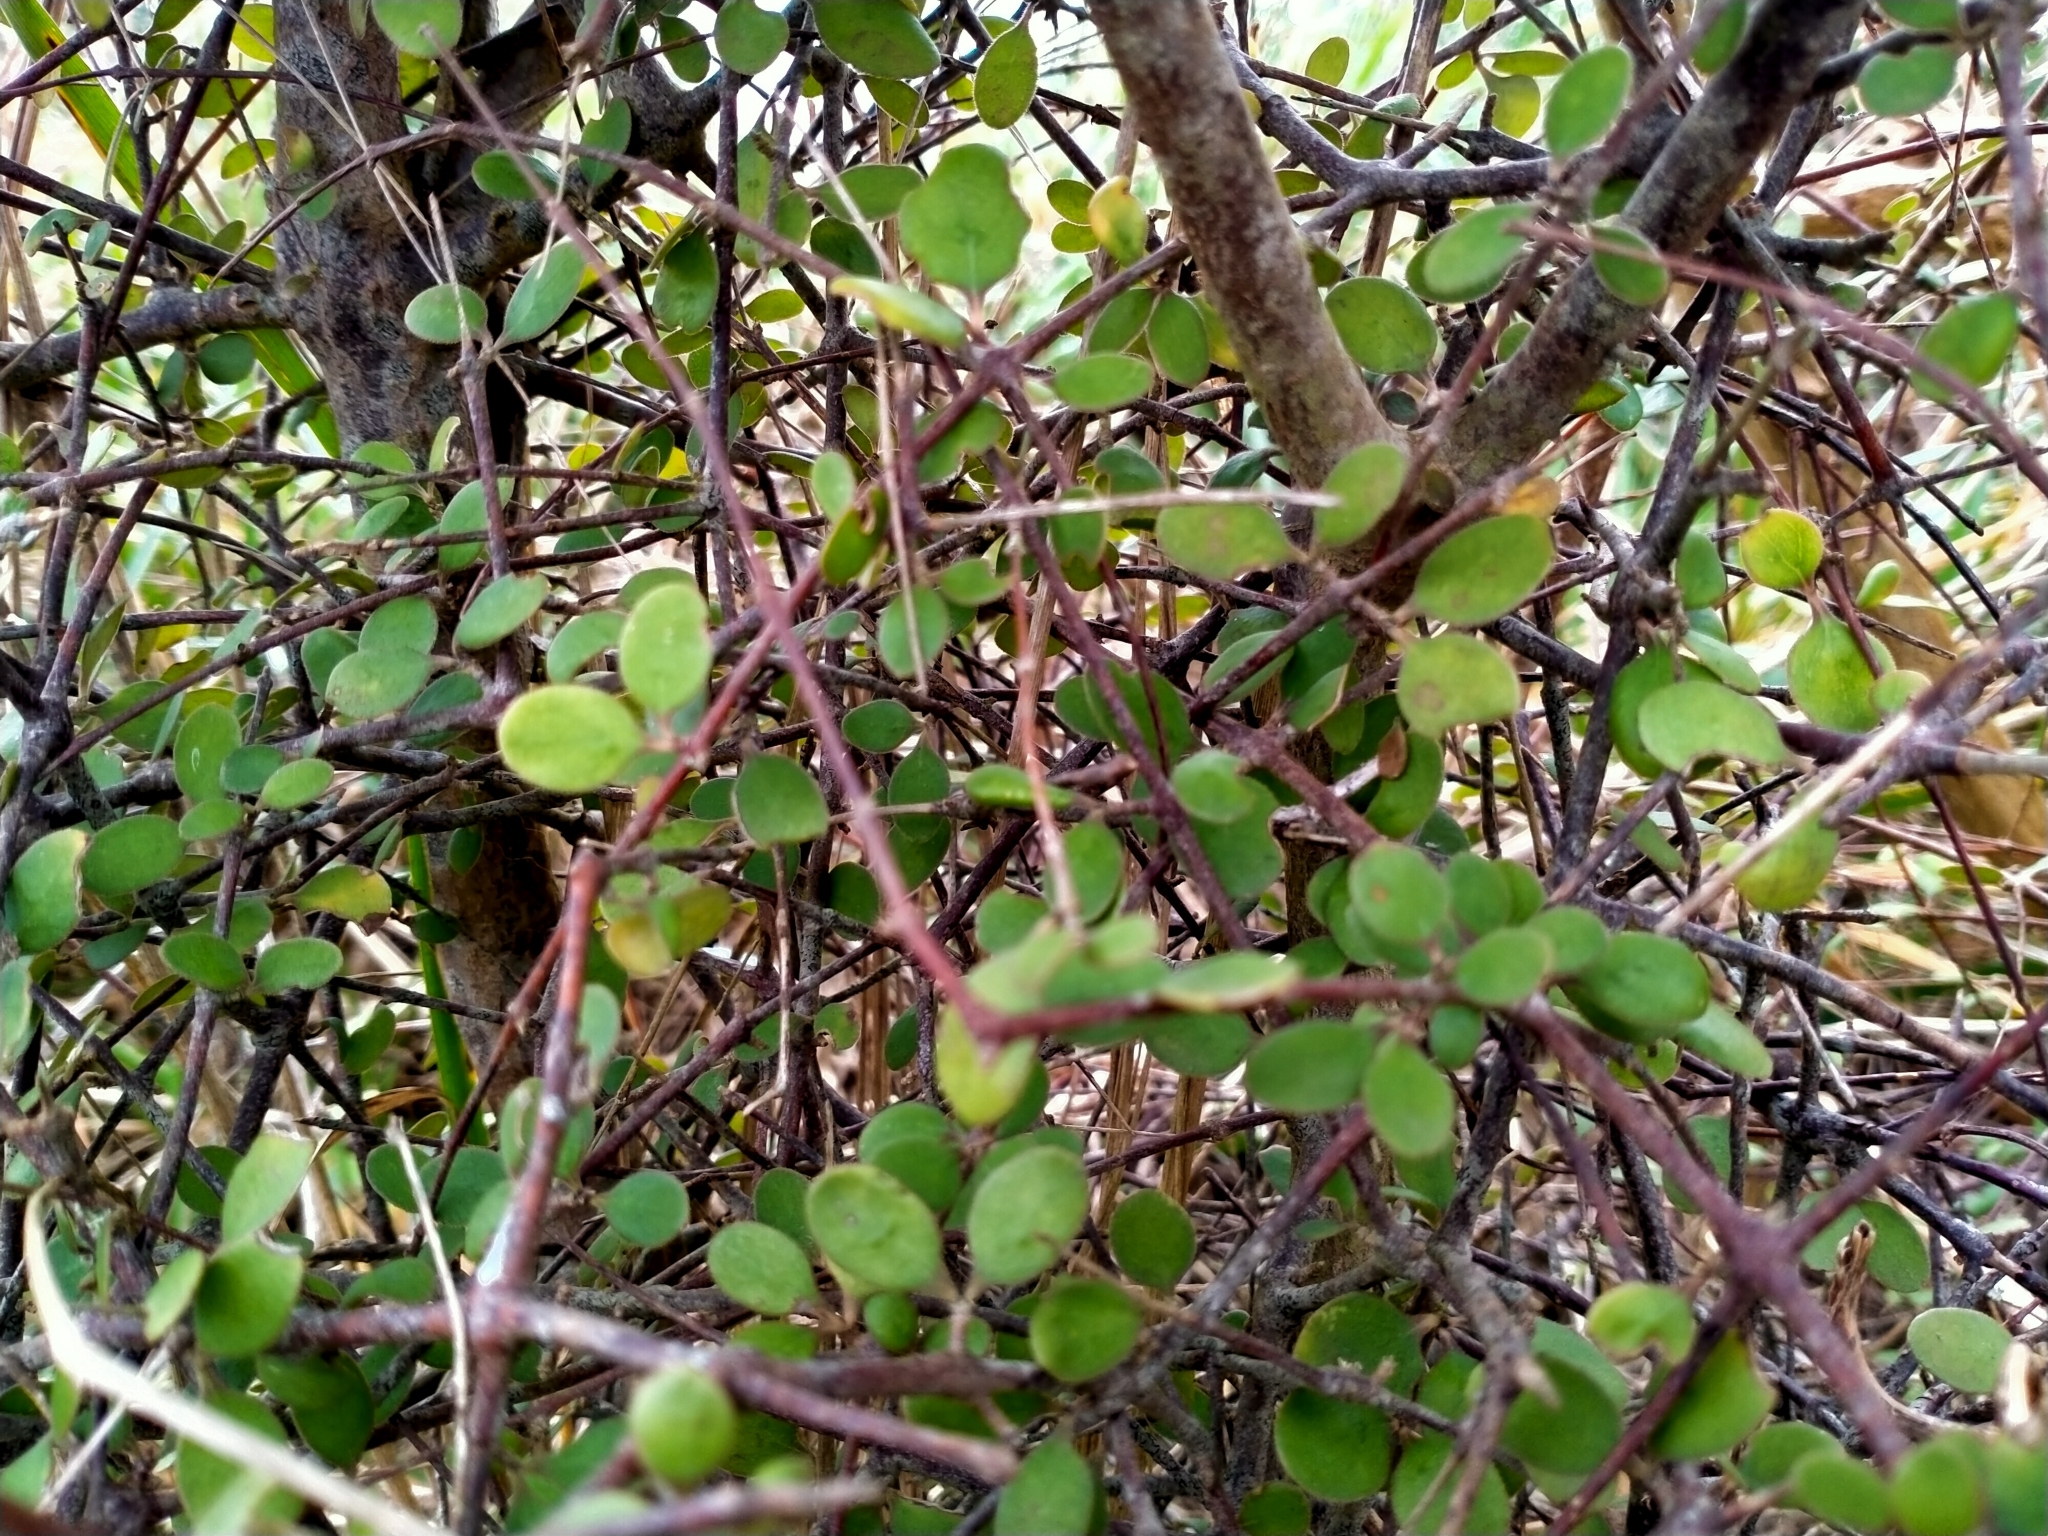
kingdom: Plantae
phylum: Tracheophyta
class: Magnoliopsida
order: Gentianales
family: Rubiaceae
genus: Coprosma
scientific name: Coprosma crassifolia
